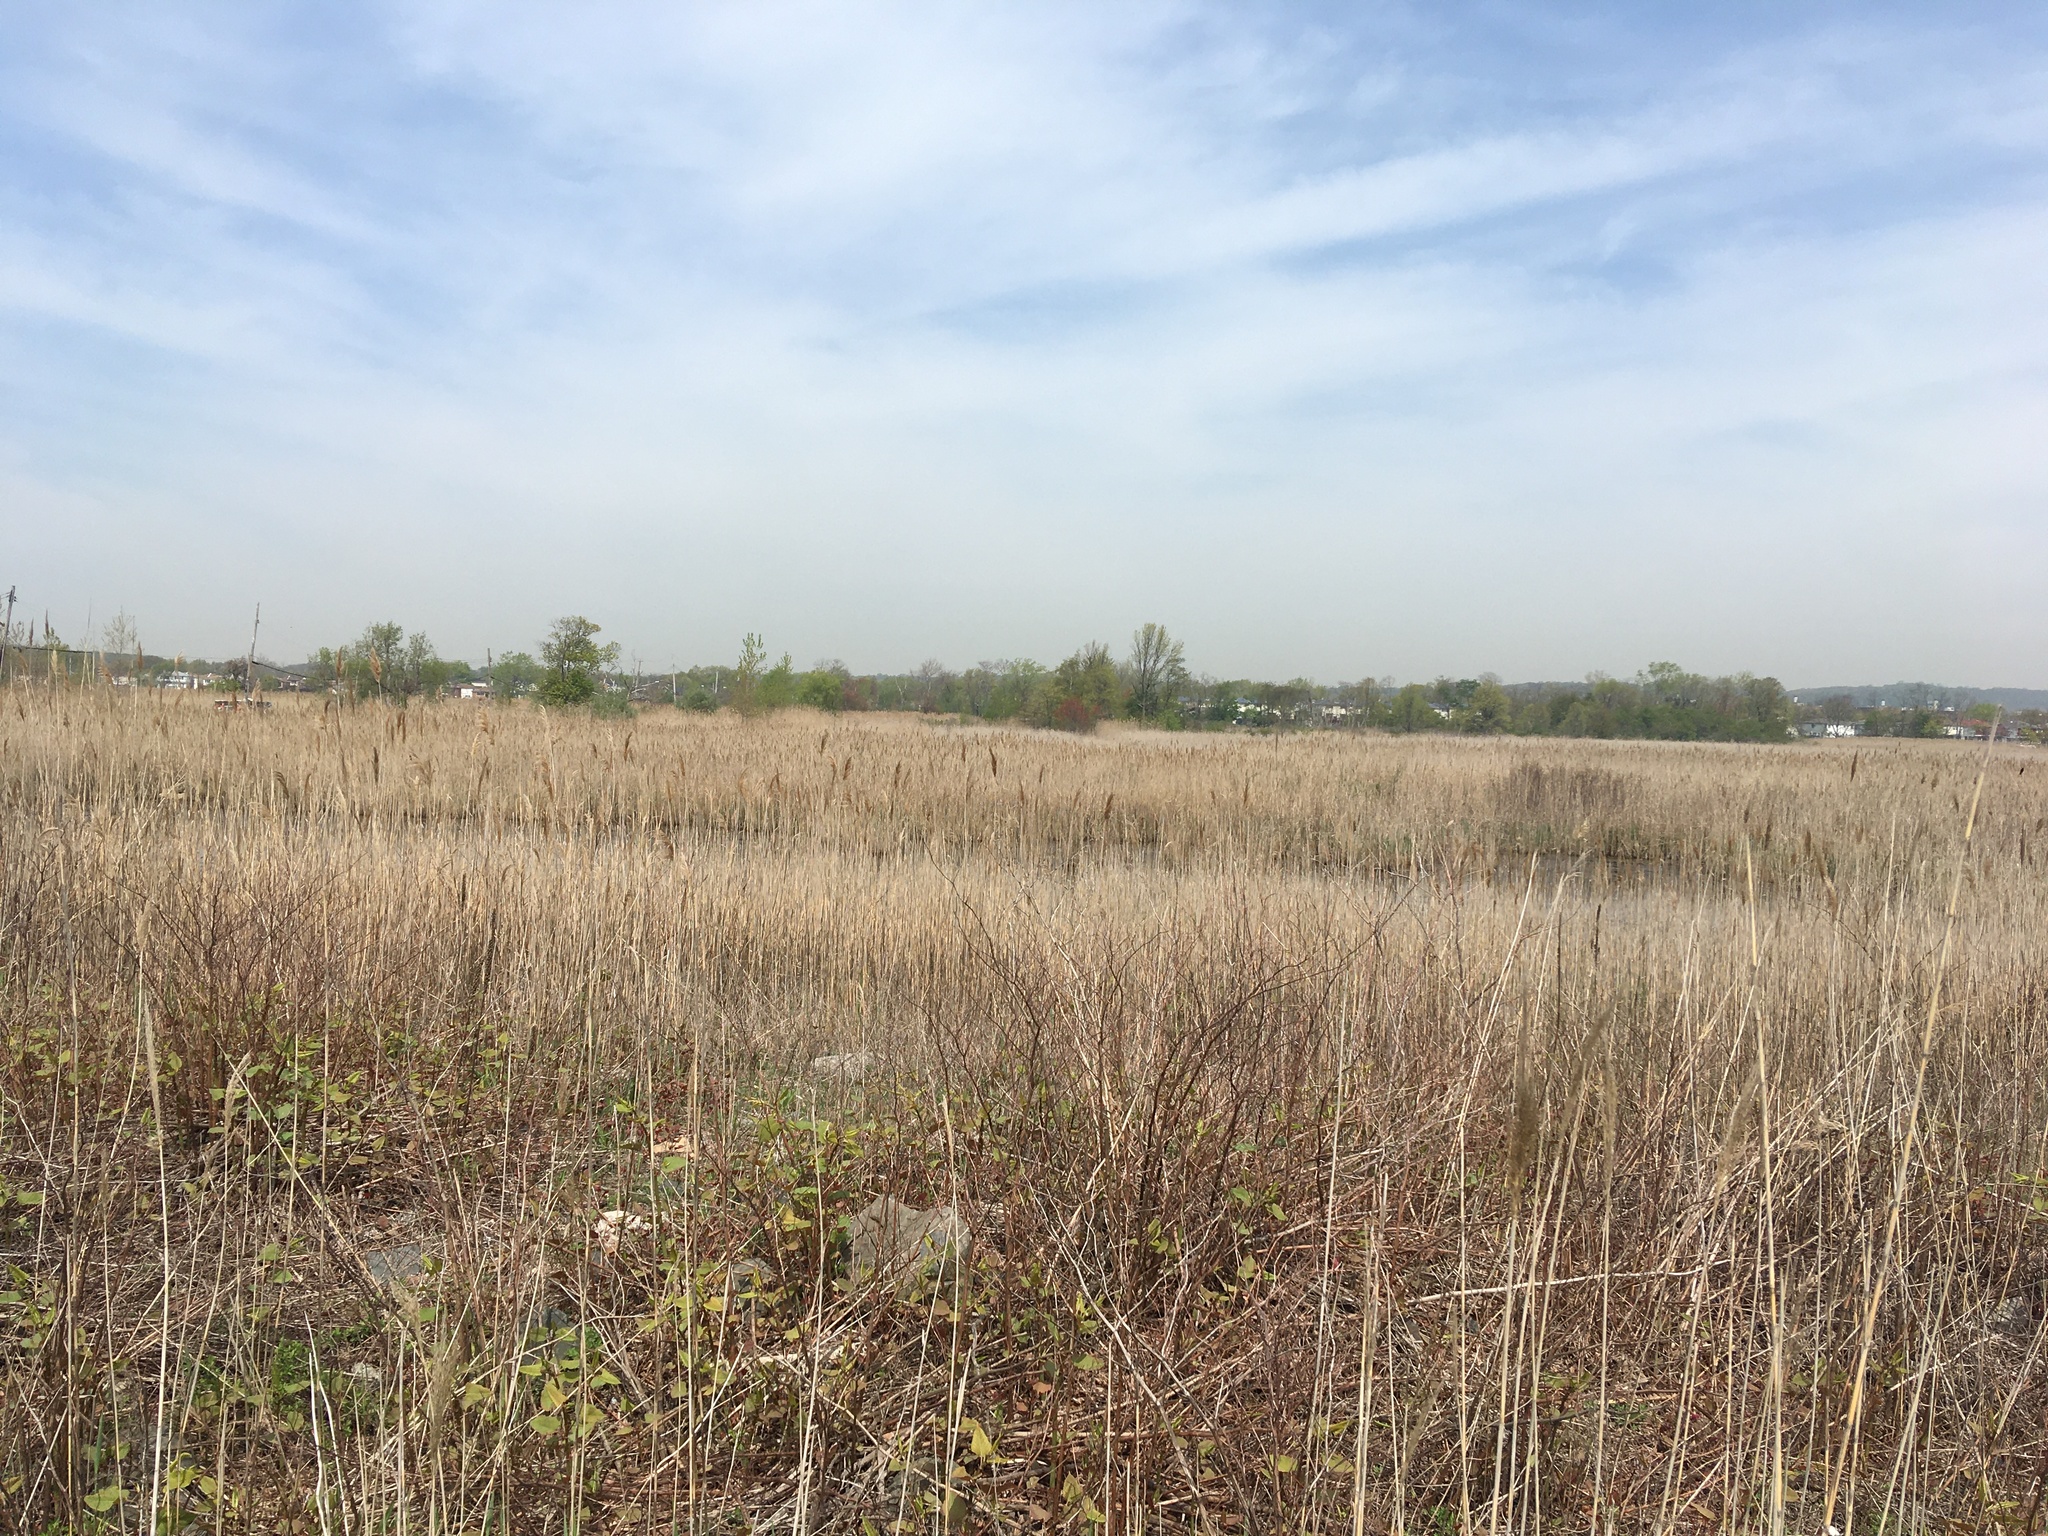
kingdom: Plantae
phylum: Tracheophyta
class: Liliopsida
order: Poales
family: Poaceae
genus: Phragmites
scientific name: Phragmites australis
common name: Common reed
